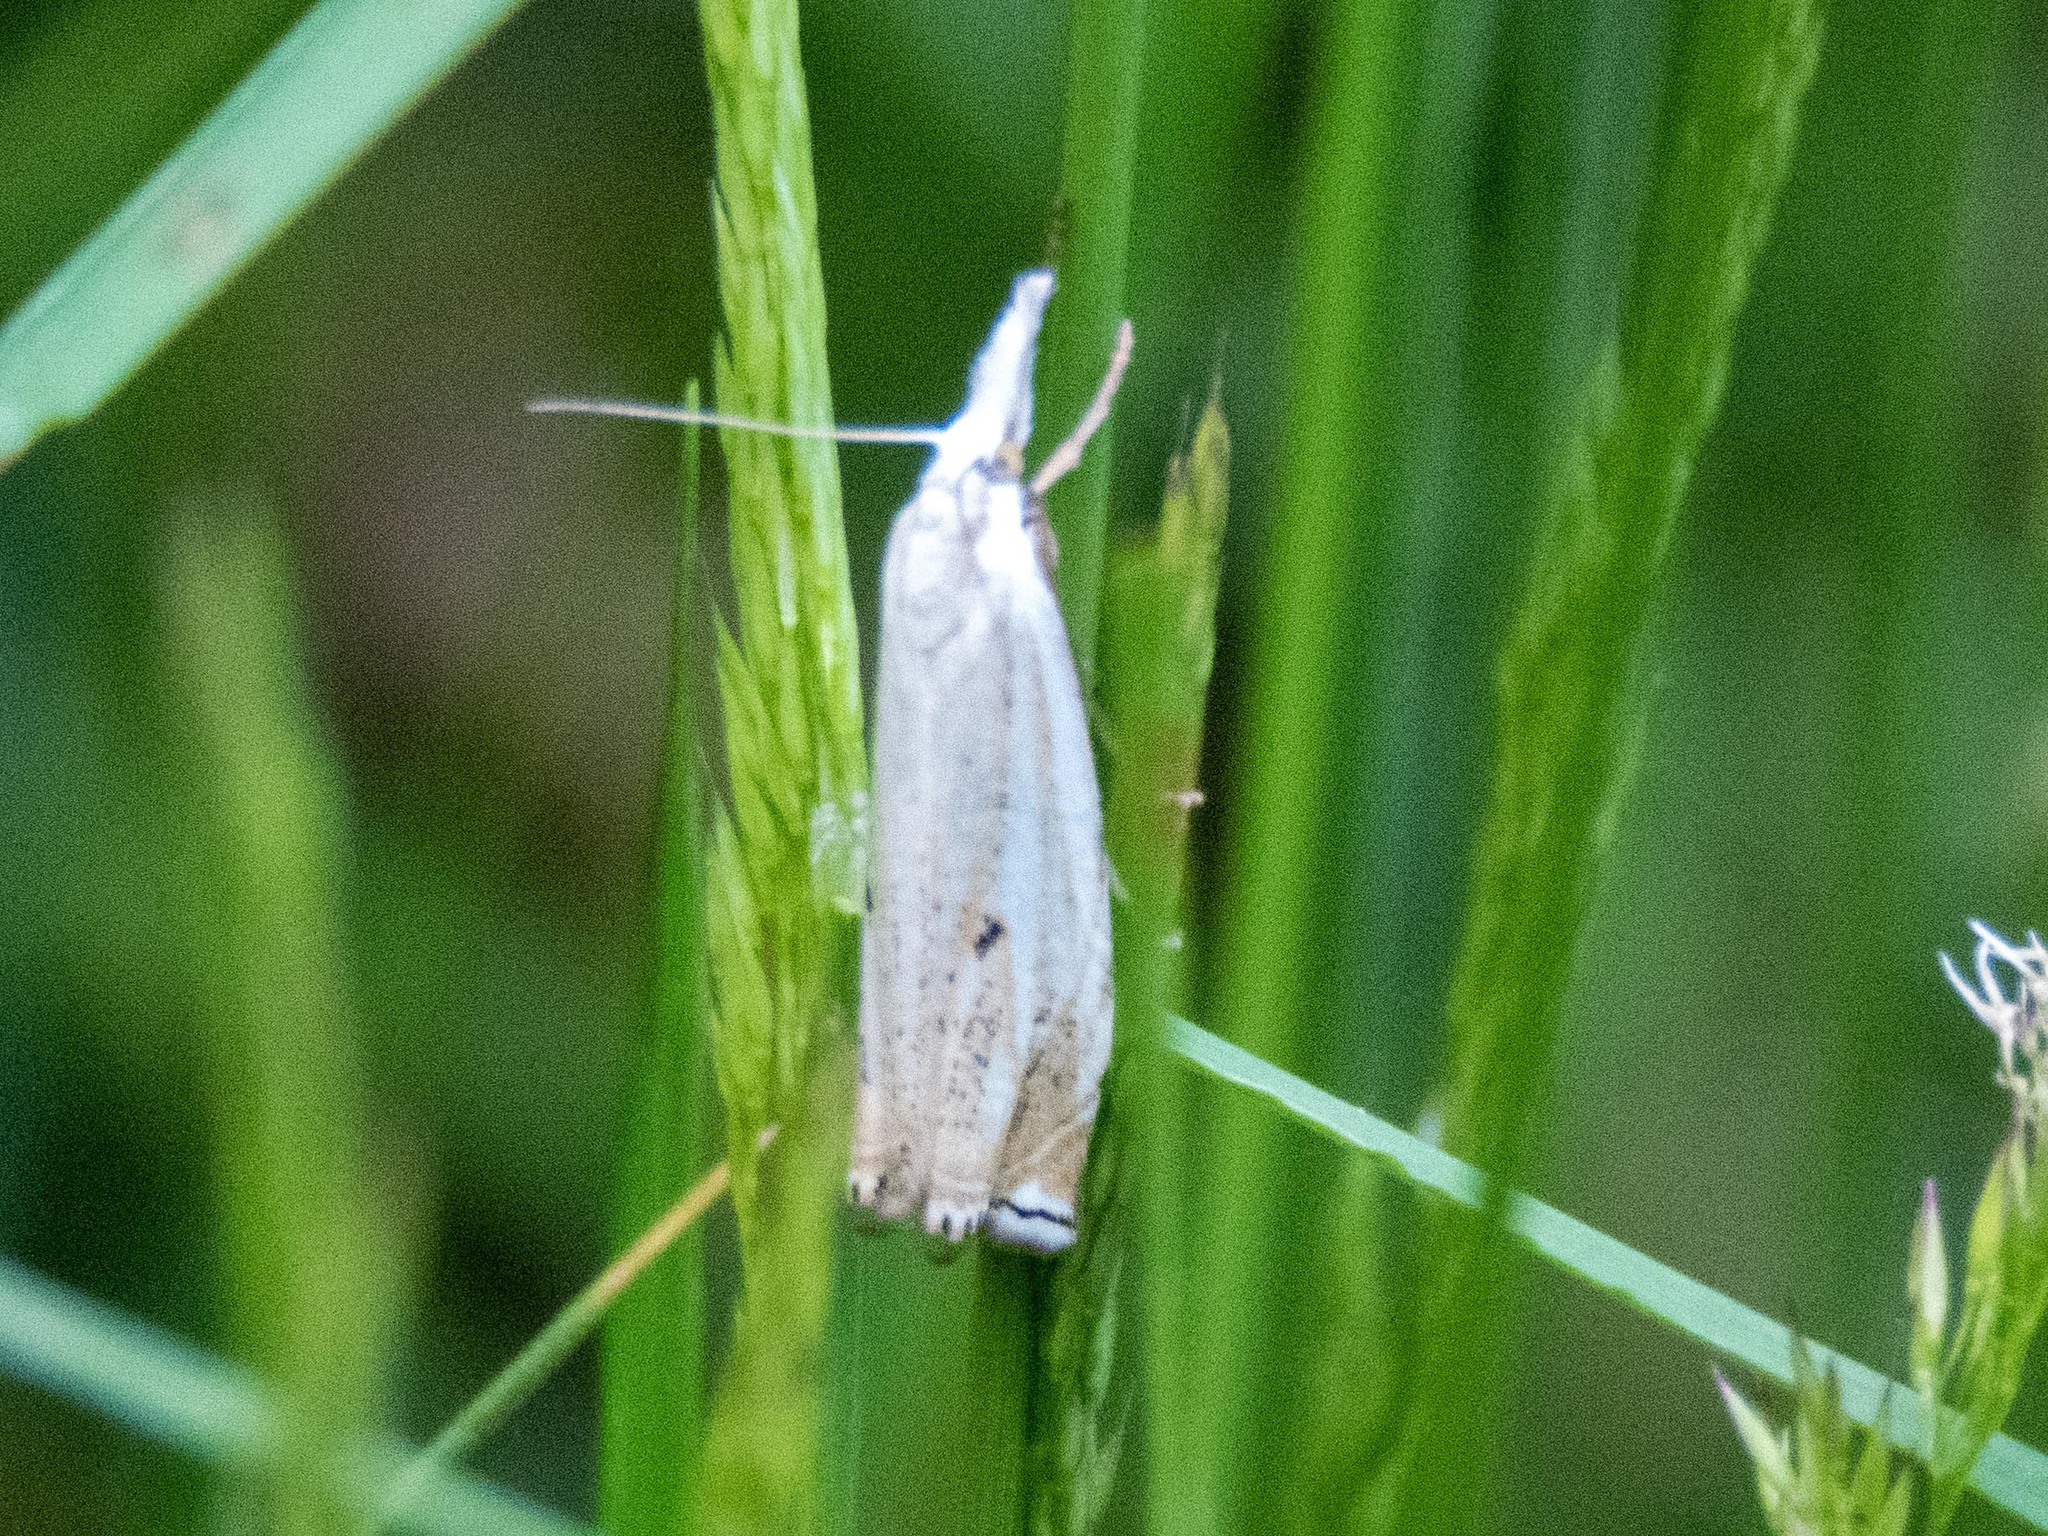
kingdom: Animalia
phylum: Arthropoda
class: Insecta
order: Lepidoptera
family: Crambidae
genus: Crambus
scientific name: Crambus nemorella
